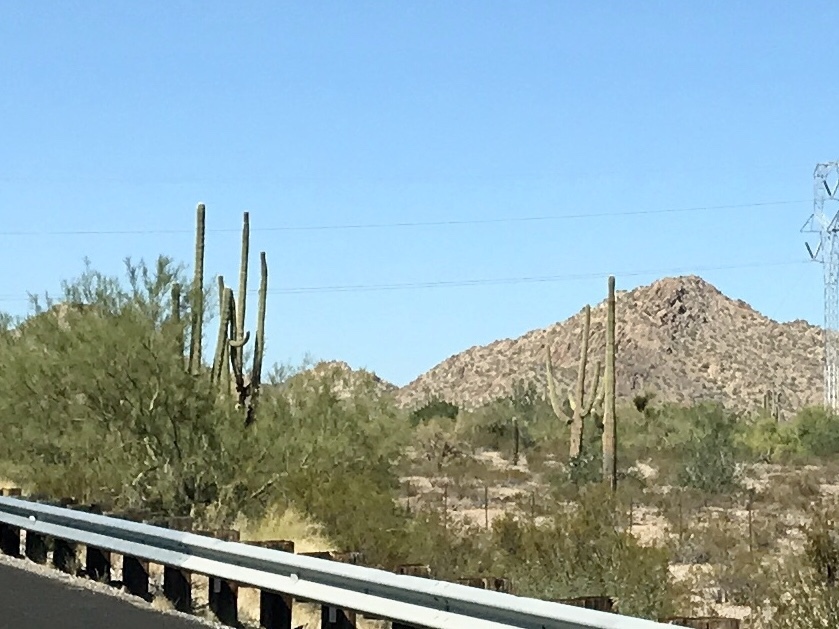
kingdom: Plantae
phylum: Tracheophyta
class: Magnoliopsida
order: Caryophyllales
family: Cactaceae
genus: Carnegiea
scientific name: Carnegiea gigantea
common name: Saguaro
